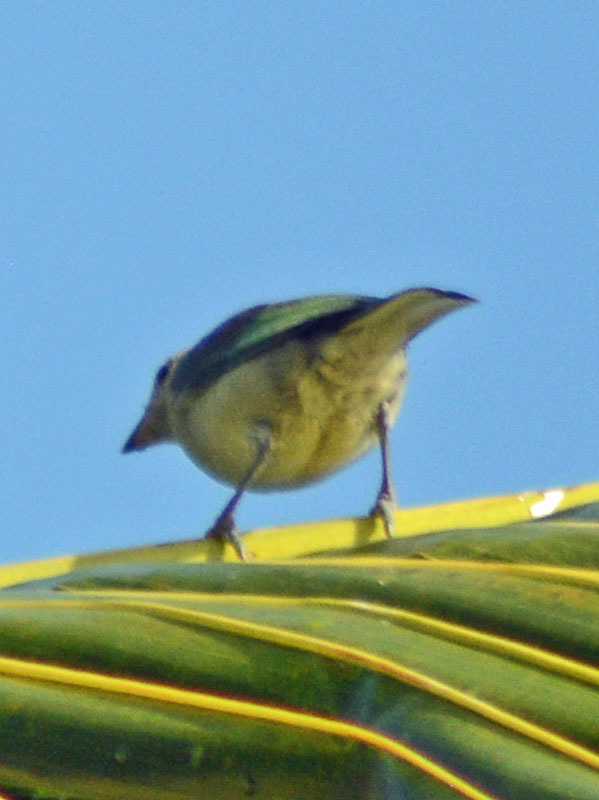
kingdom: Animalia
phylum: Chordata
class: Aves
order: Passeriformes
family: Thraupidae
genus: Thraupis
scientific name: Thraupis episcopus
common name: Blue-grey tanager
